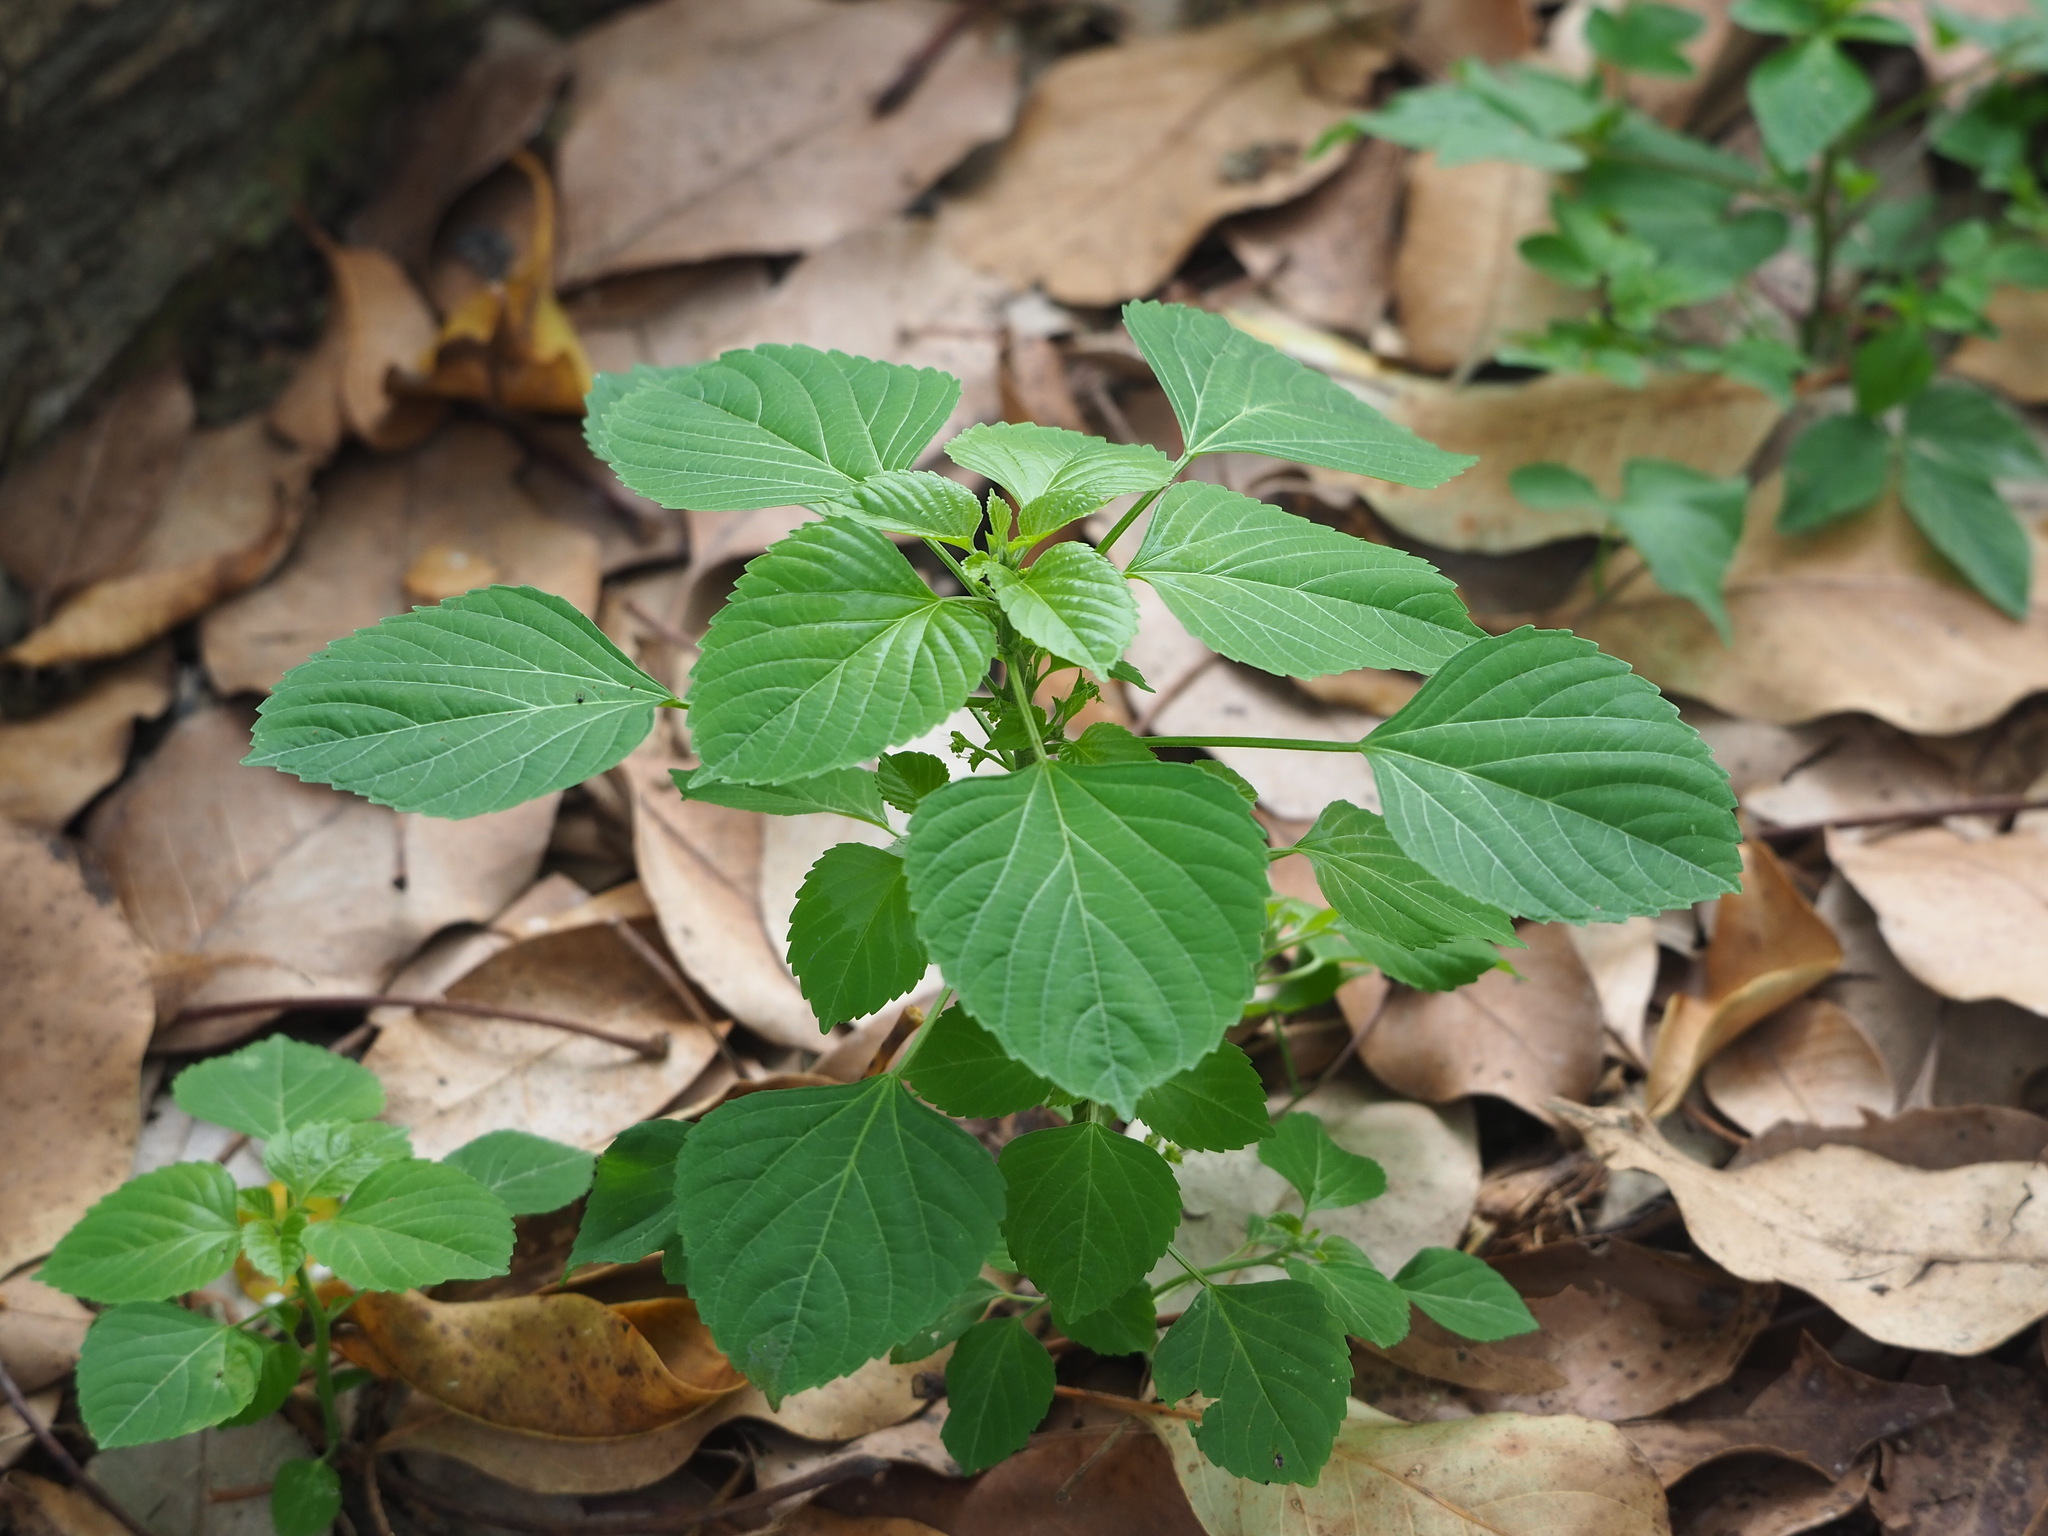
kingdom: Plantae
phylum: Tracheophyta
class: Magnoliopsida
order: Malpighiales
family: Euphorbiaceae
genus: Acalypha
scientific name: Acalypha indica
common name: Indian acalypha
